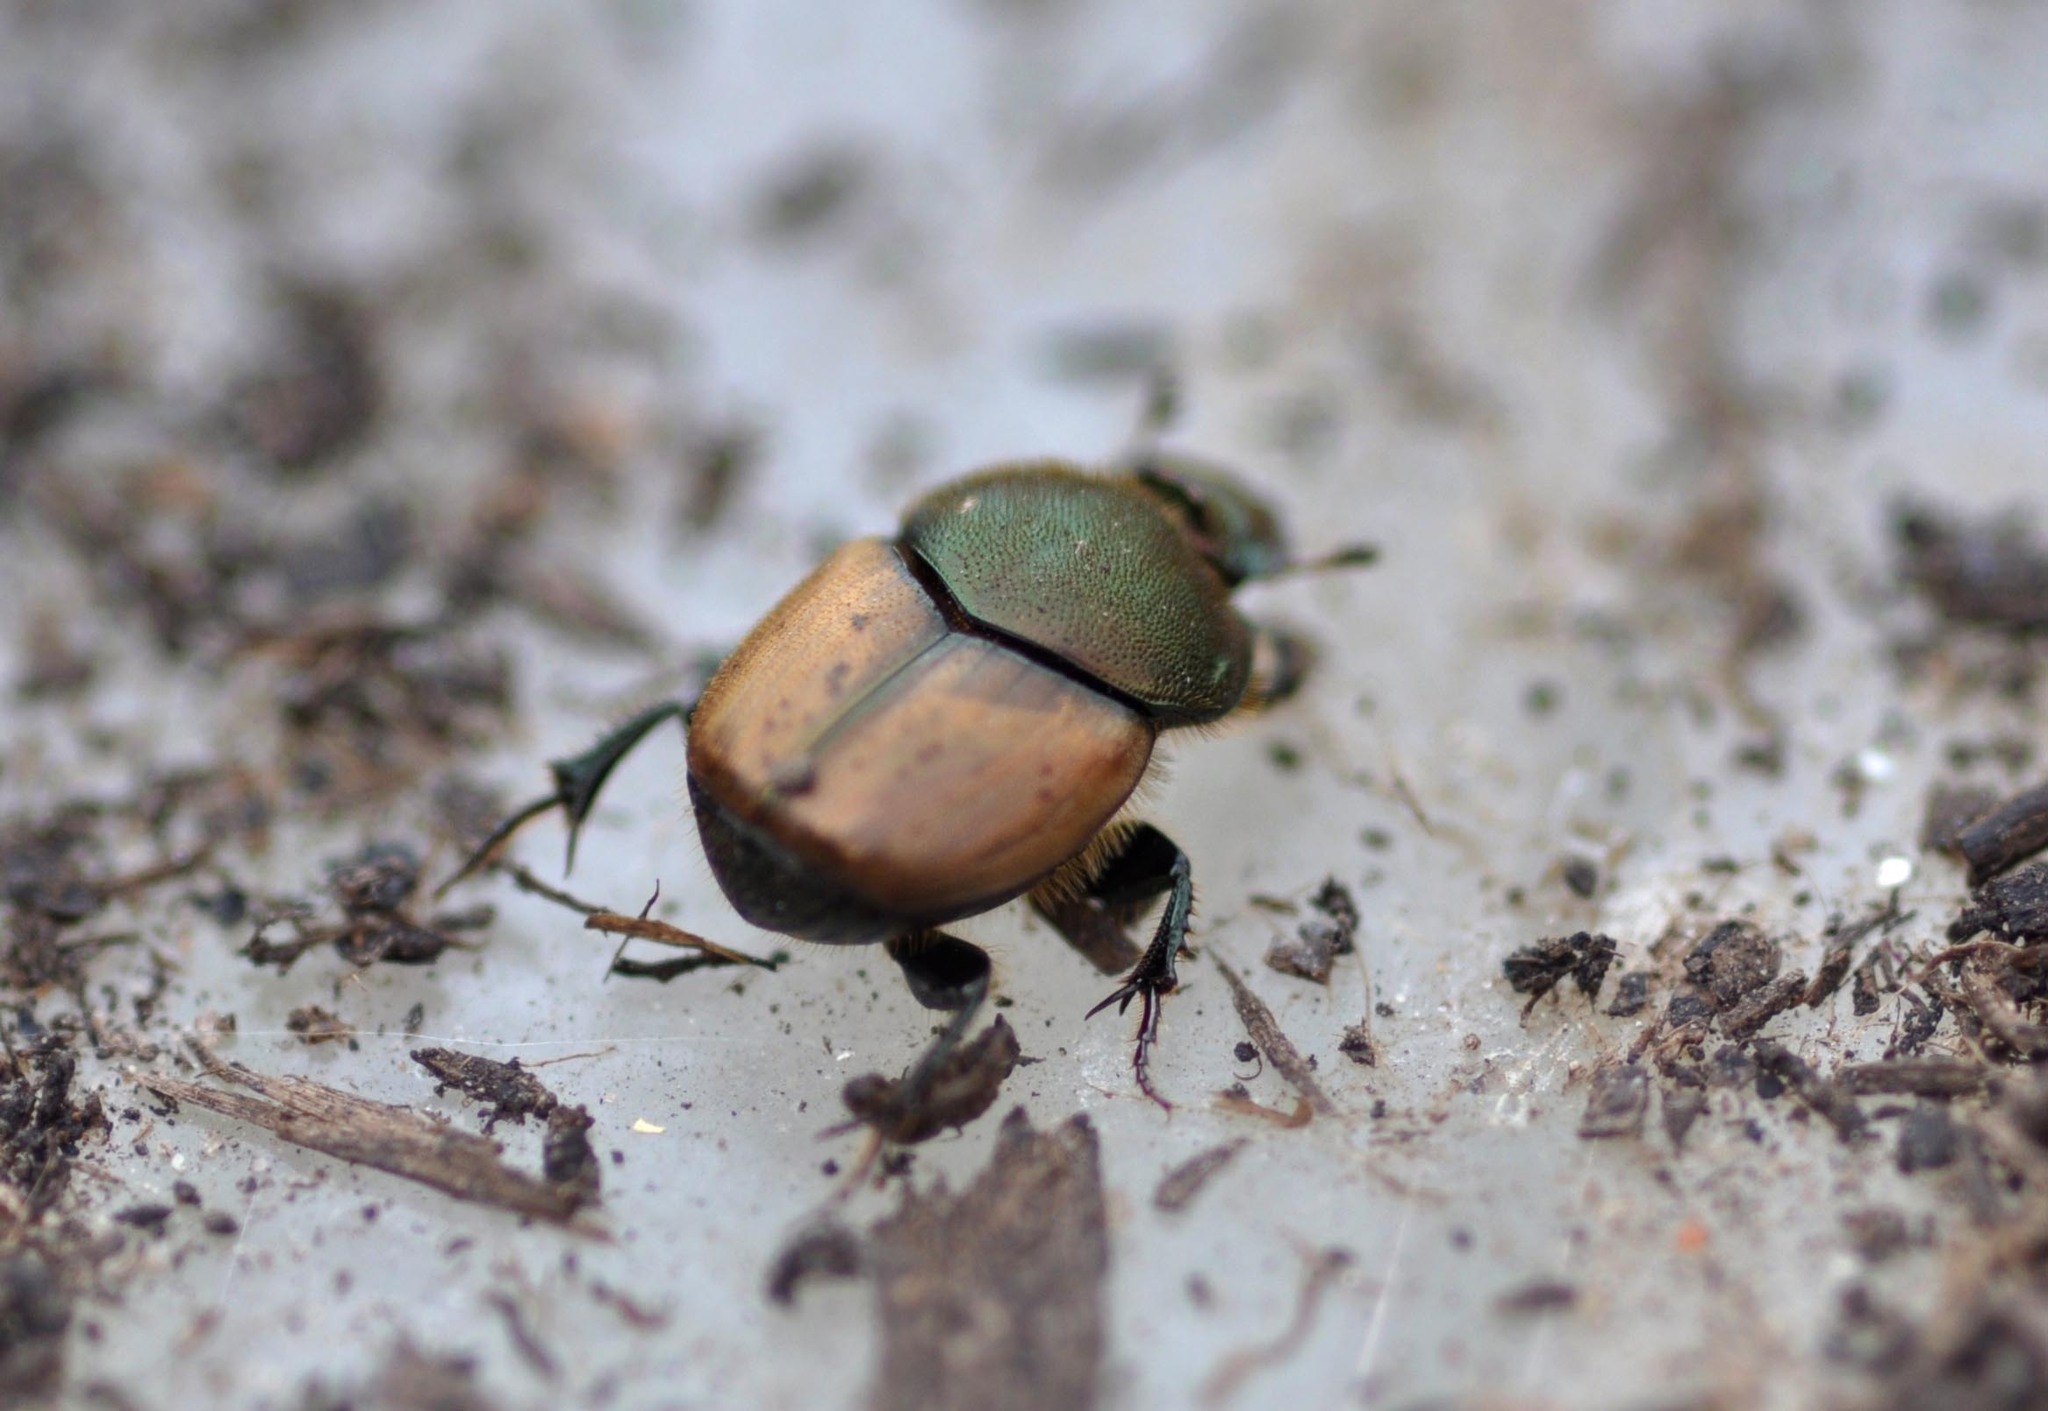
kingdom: Animalia
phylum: Arthropoda
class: Insecta
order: Coleoptera
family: Scarabaeidae
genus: Onthophagus
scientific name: Onthophagus coenobita
